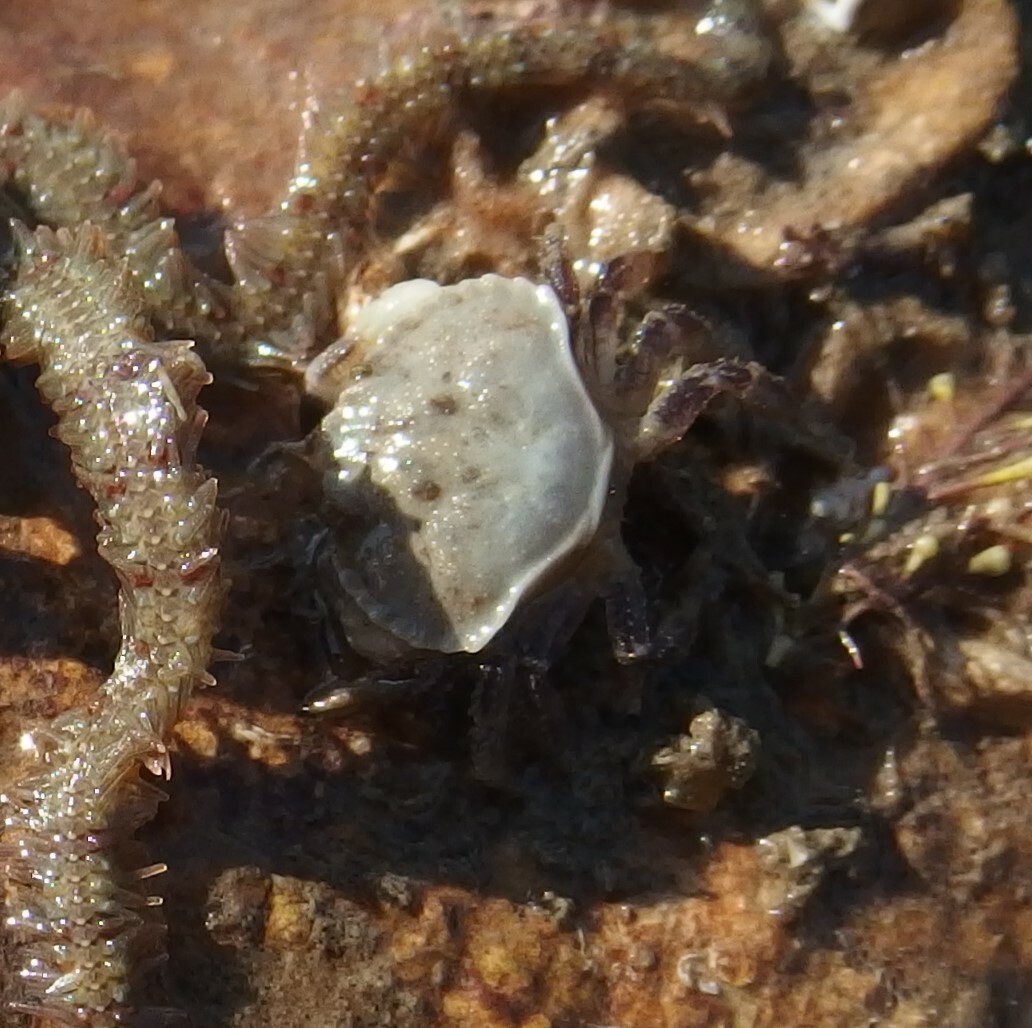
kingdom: Animalia
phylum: Arthropoda
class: Malacostraca
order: Decapoda
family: Cancridae
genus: Cancer
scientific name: Cancer pagurus
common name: Edible crab
